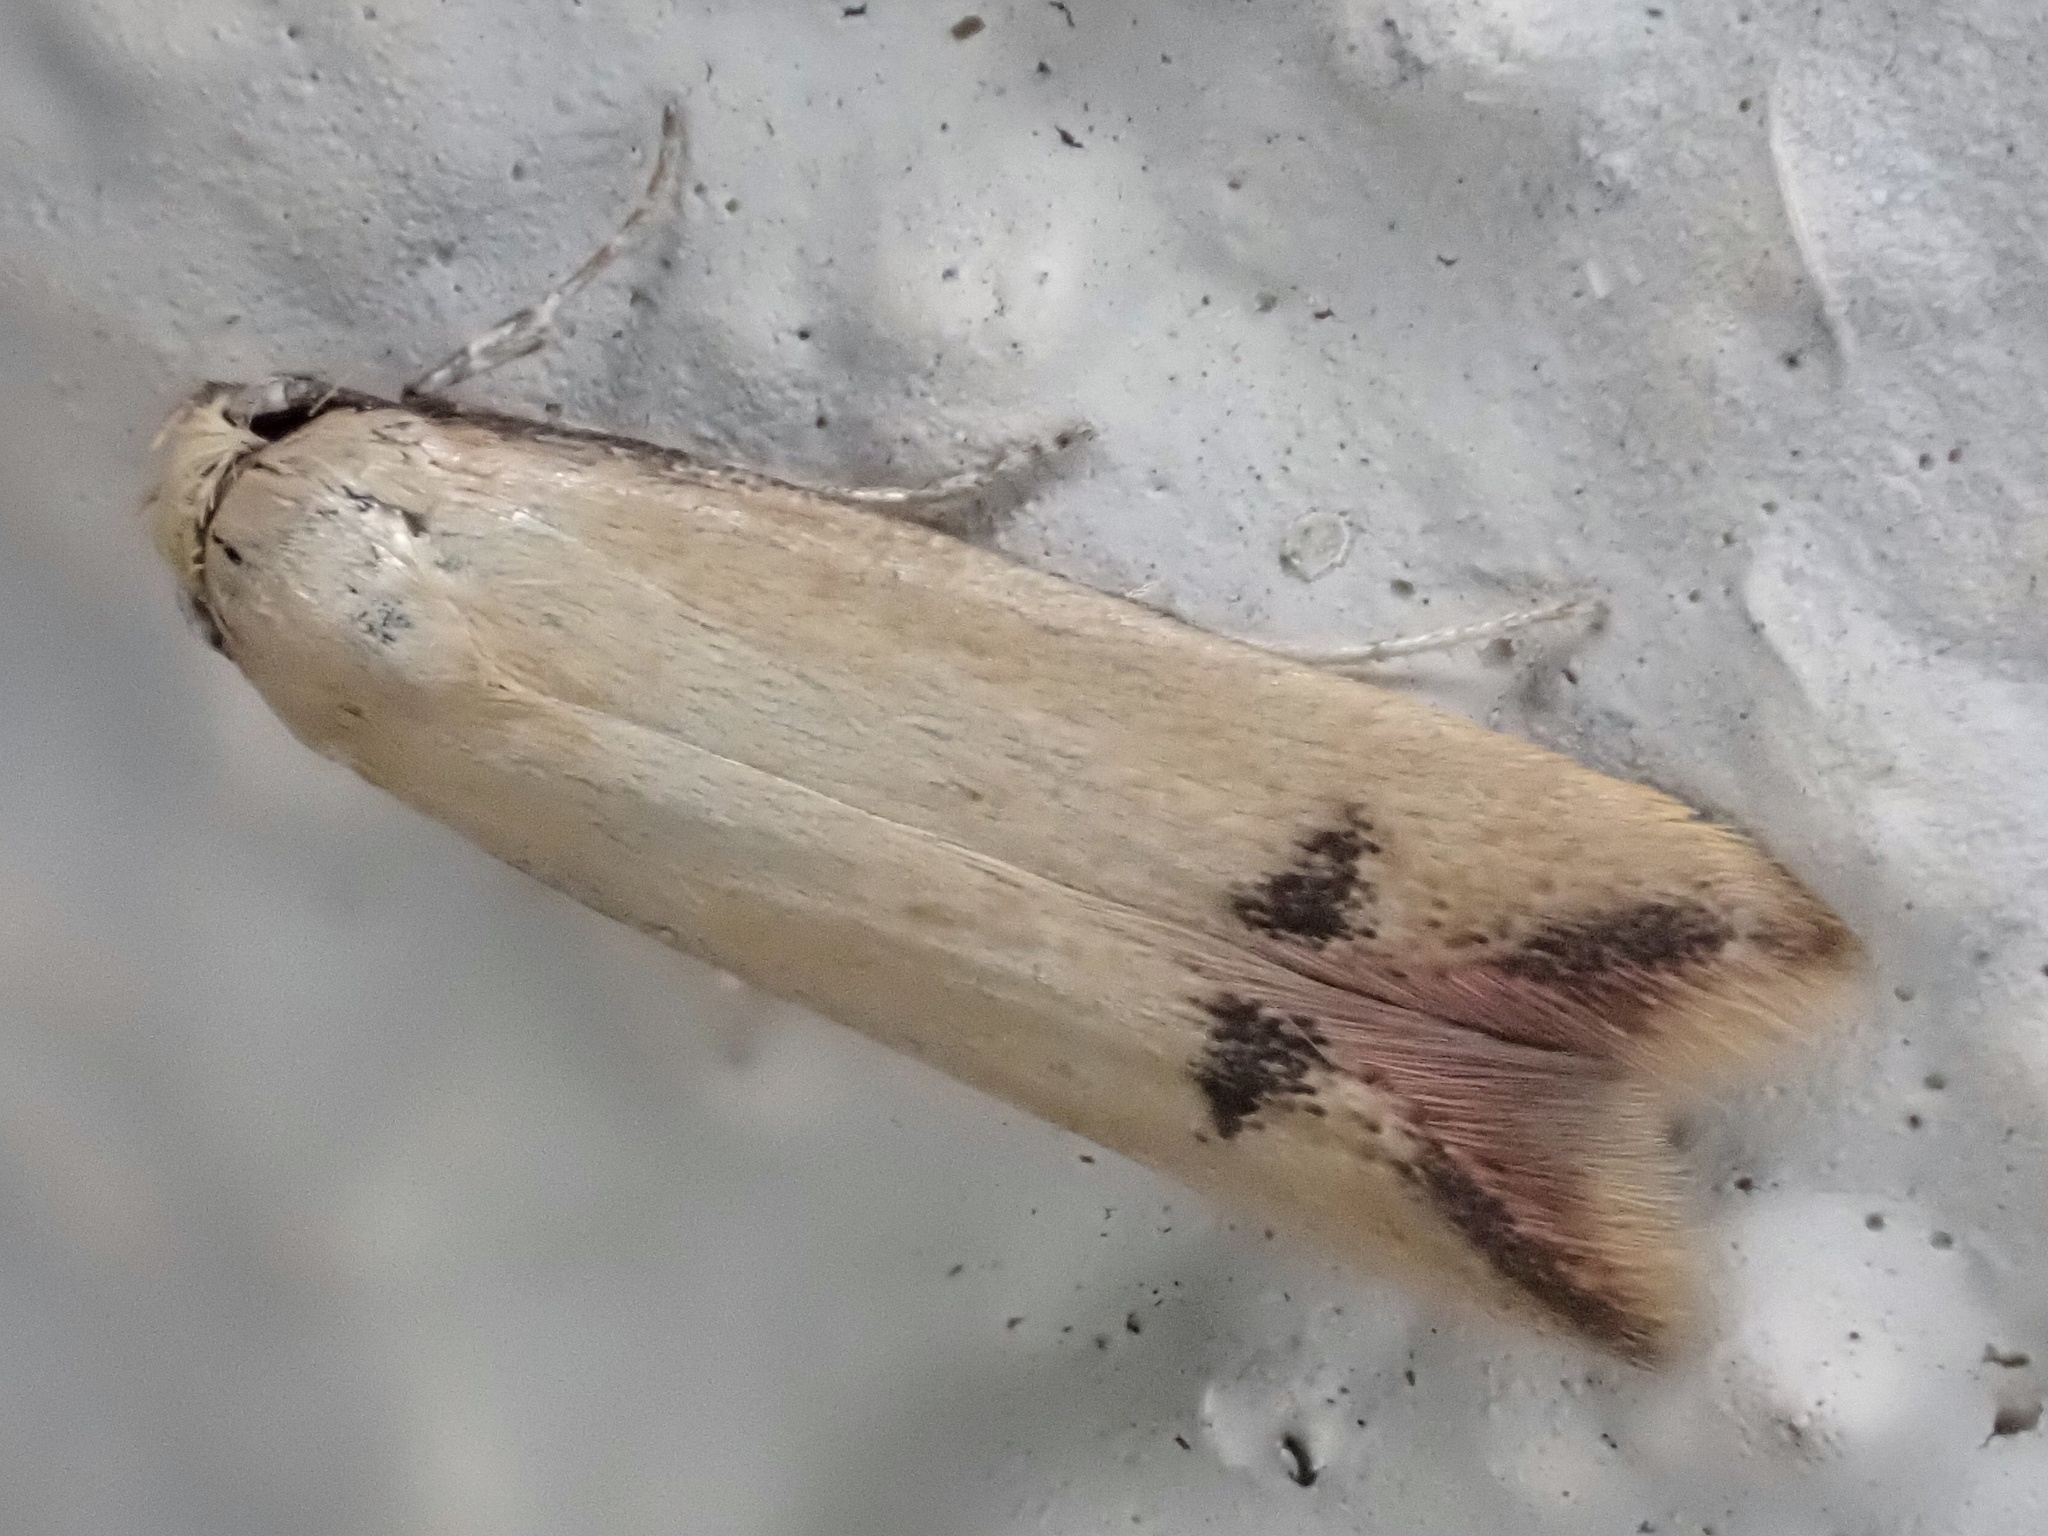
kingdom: Animalia
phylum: Arthropoda
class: Insecta
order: Lepidoptera
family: Oecophoridae
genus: Tachystola
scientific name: Tachystola hemisema
